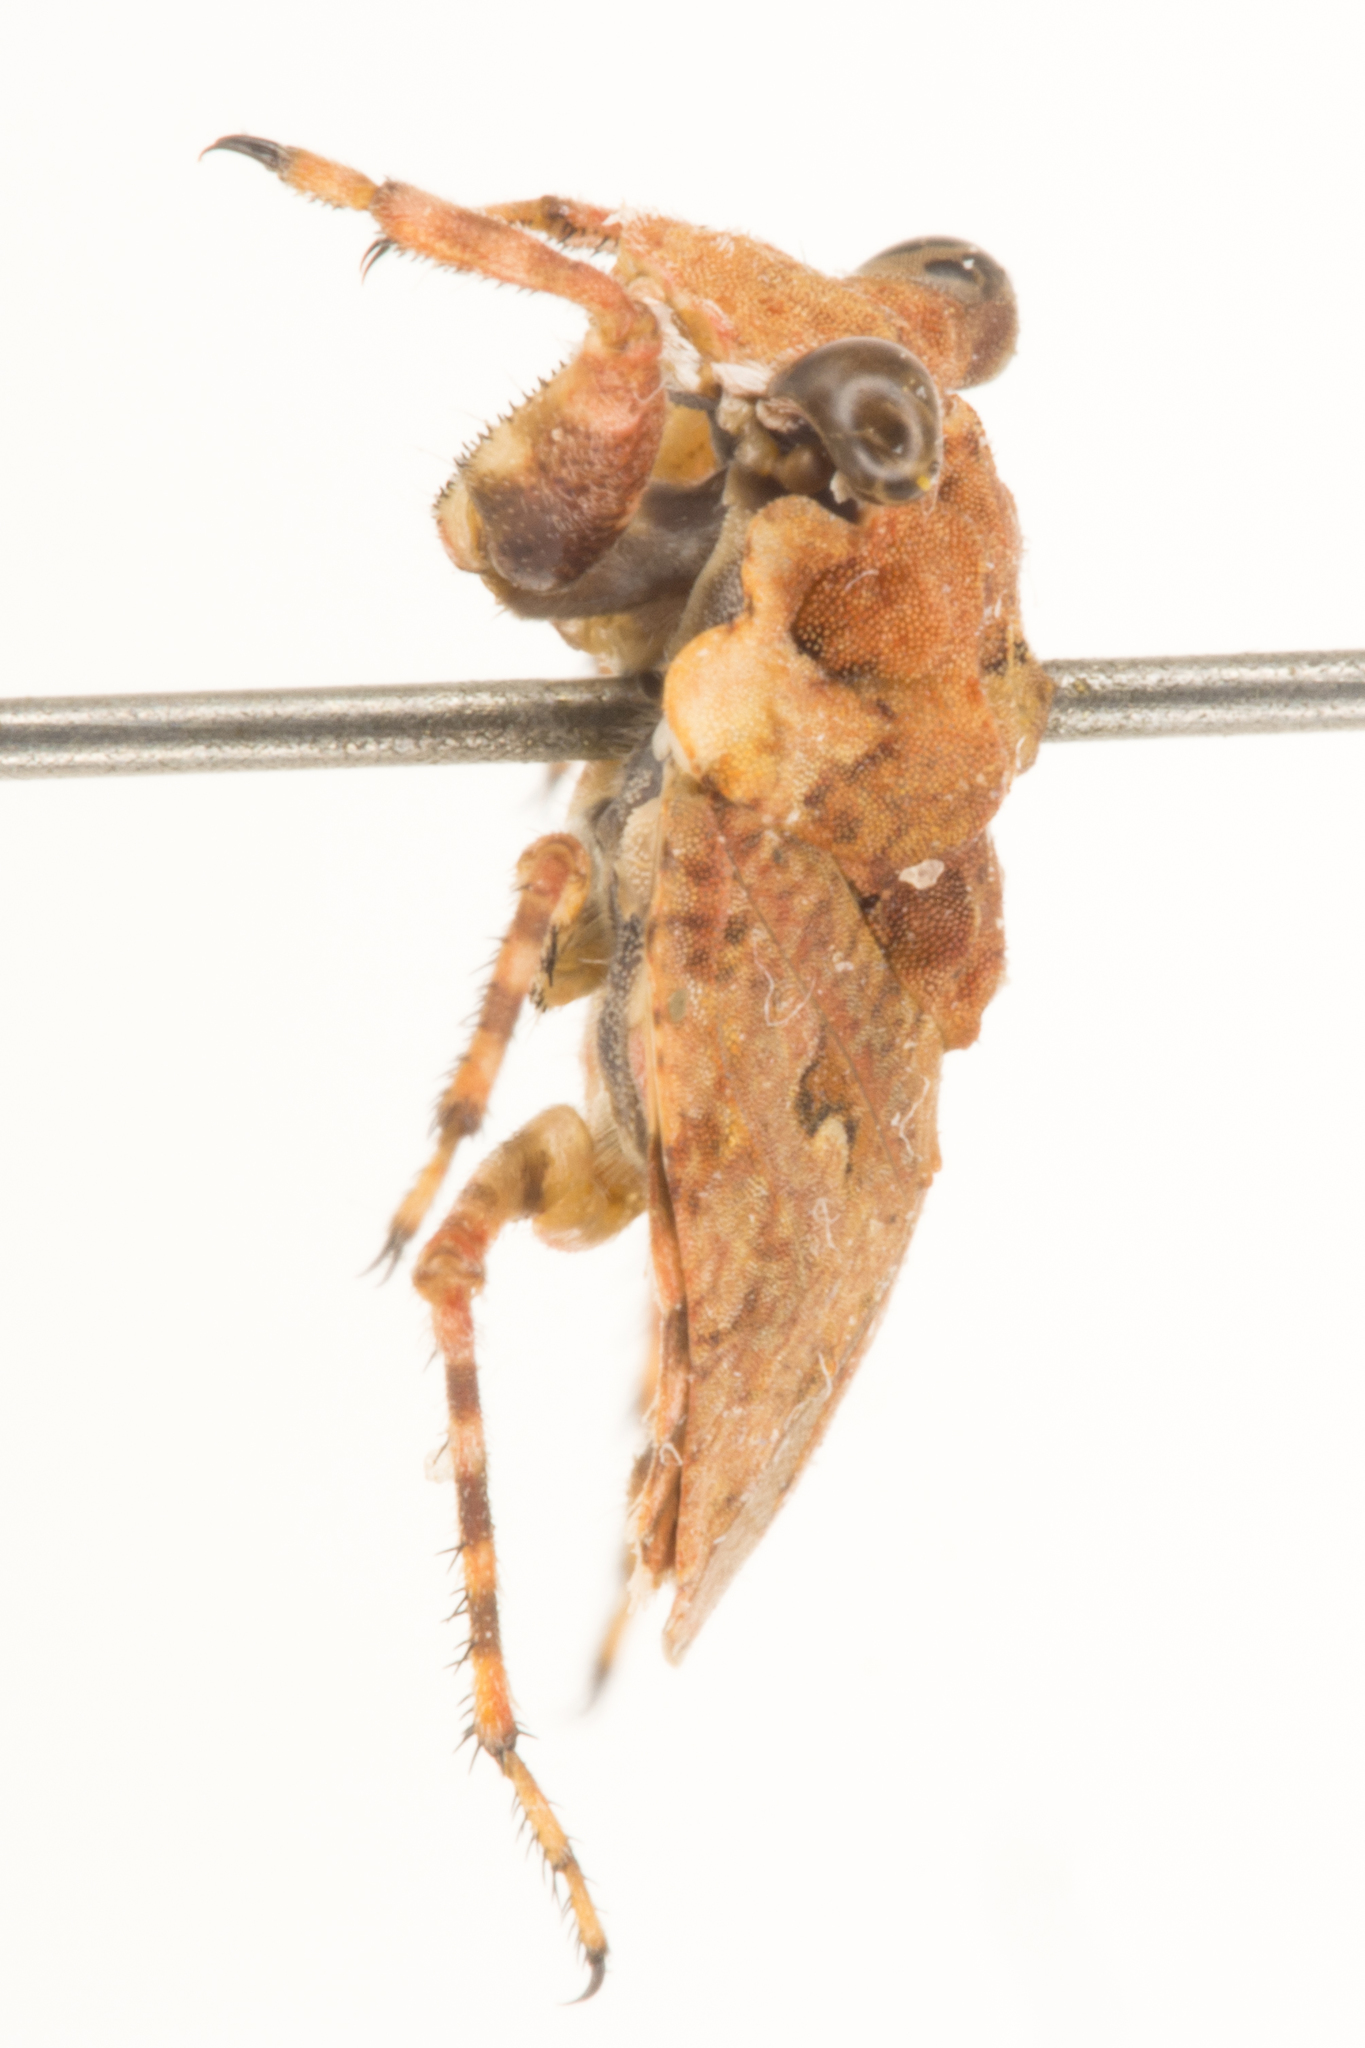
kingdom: Animalia
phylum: Arthropoda
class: Insecta
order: Hemiptera
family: Gelastocoridae
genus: Gelastocoris
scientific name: Gelastocoris oculatus
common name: Toad bug
